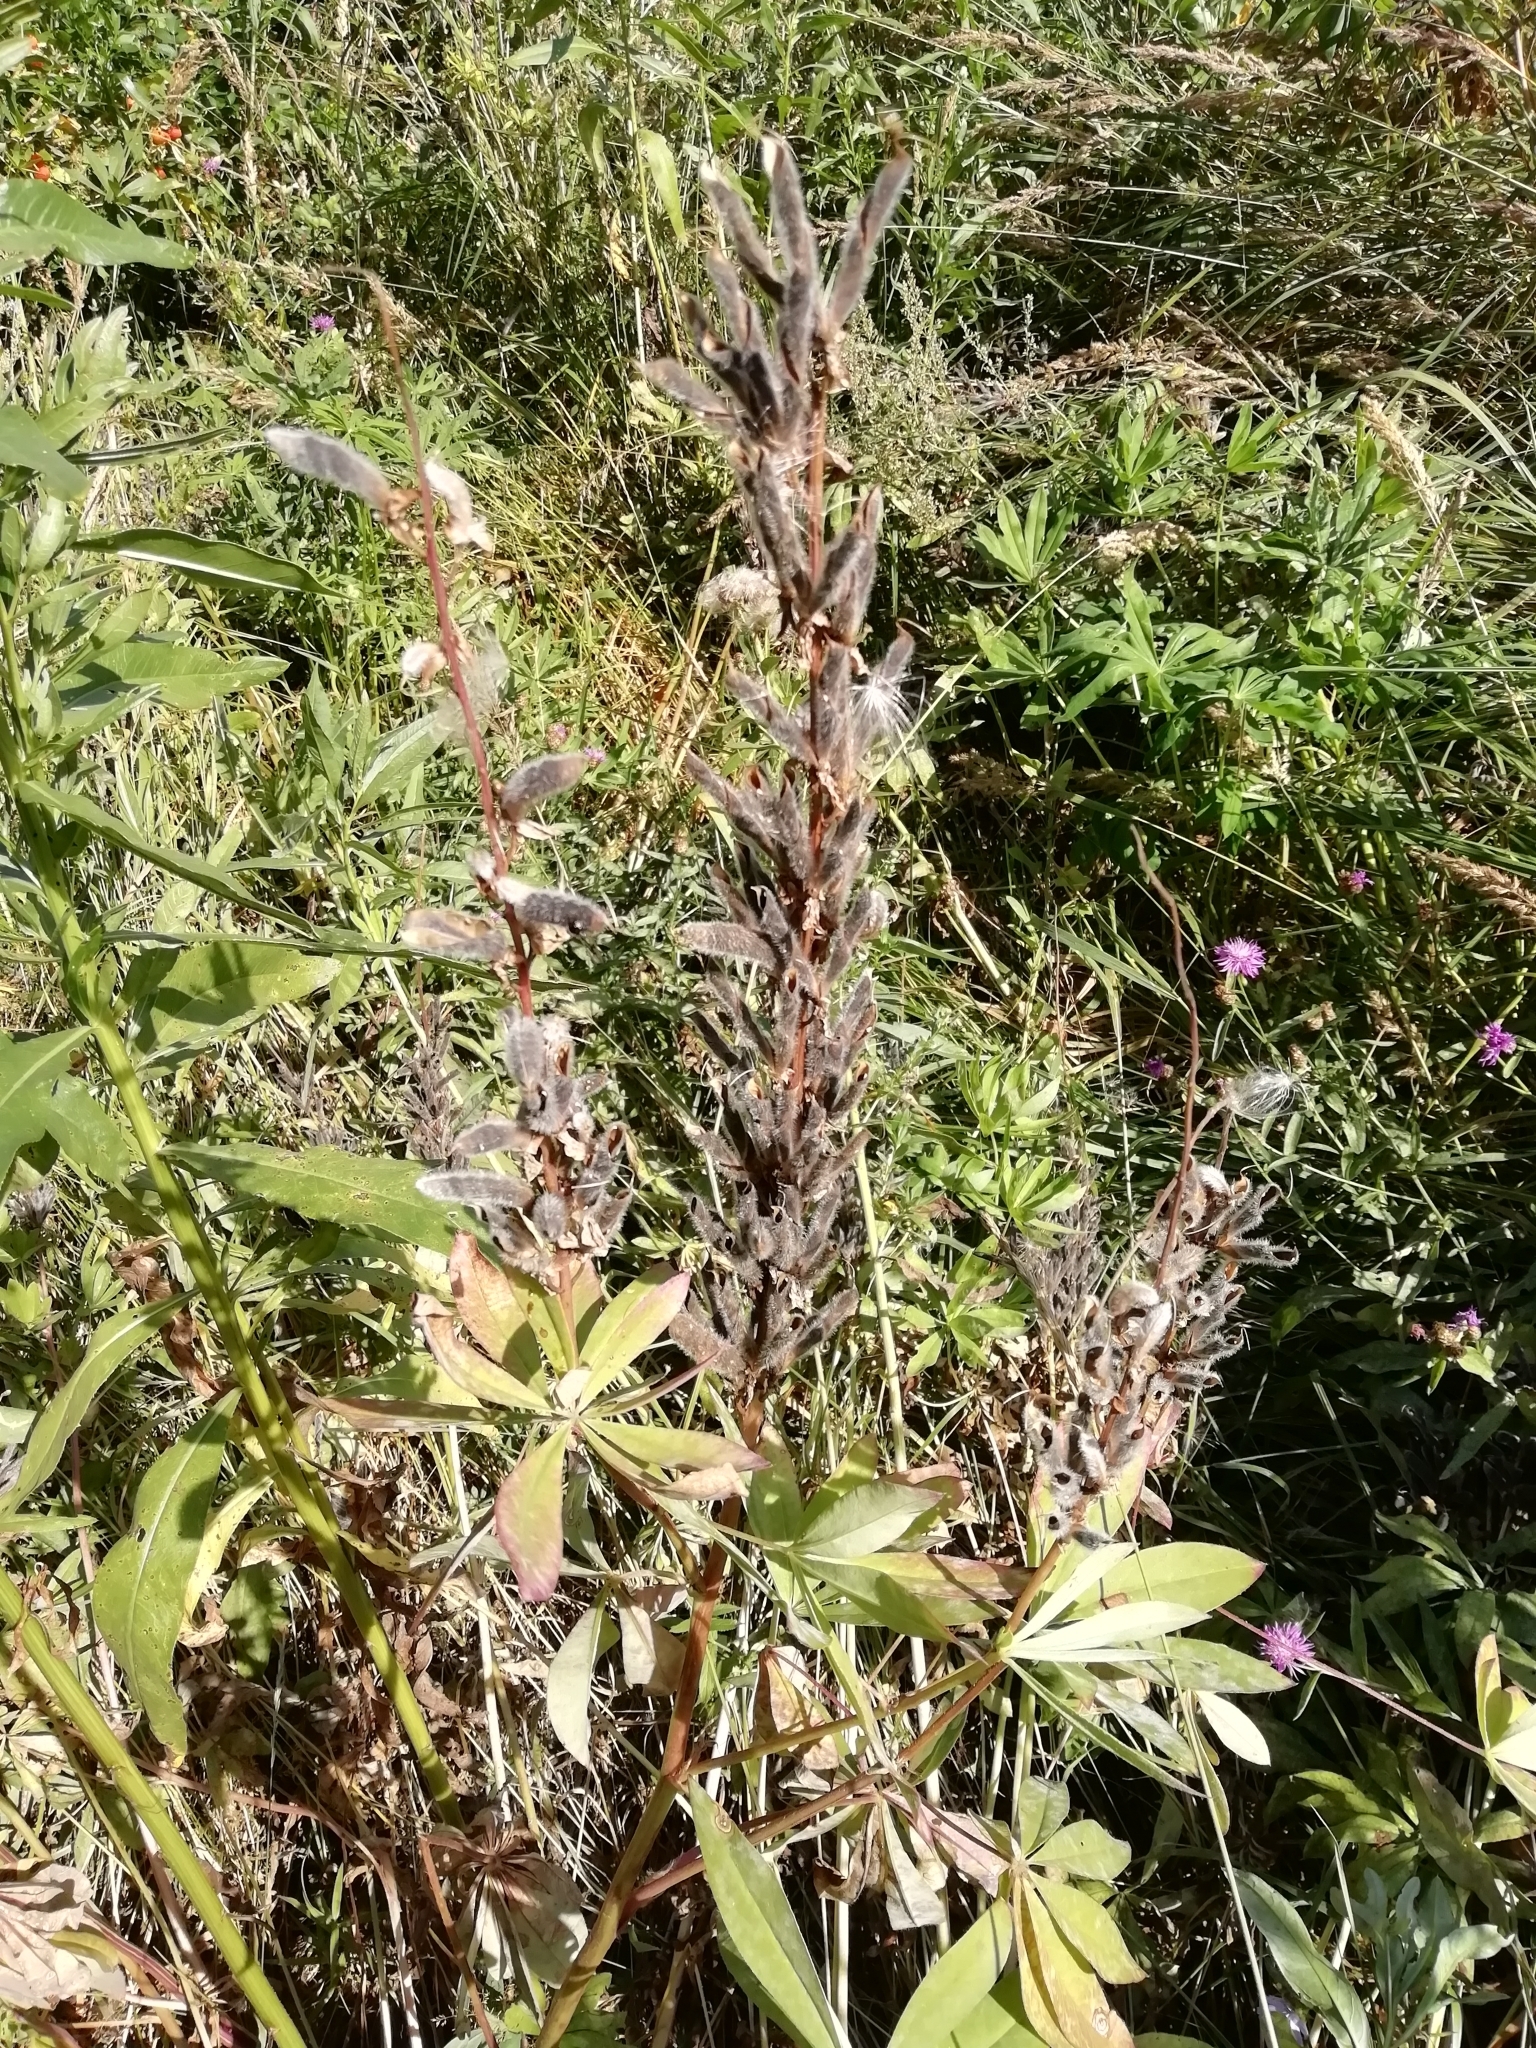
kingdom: Plantae
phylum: Tracheophyta
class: Magnoliopsida
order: Fabales
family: Fabaceae
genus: Lupinus
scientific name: Lupinus polyphyllus
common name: Garden lupin
